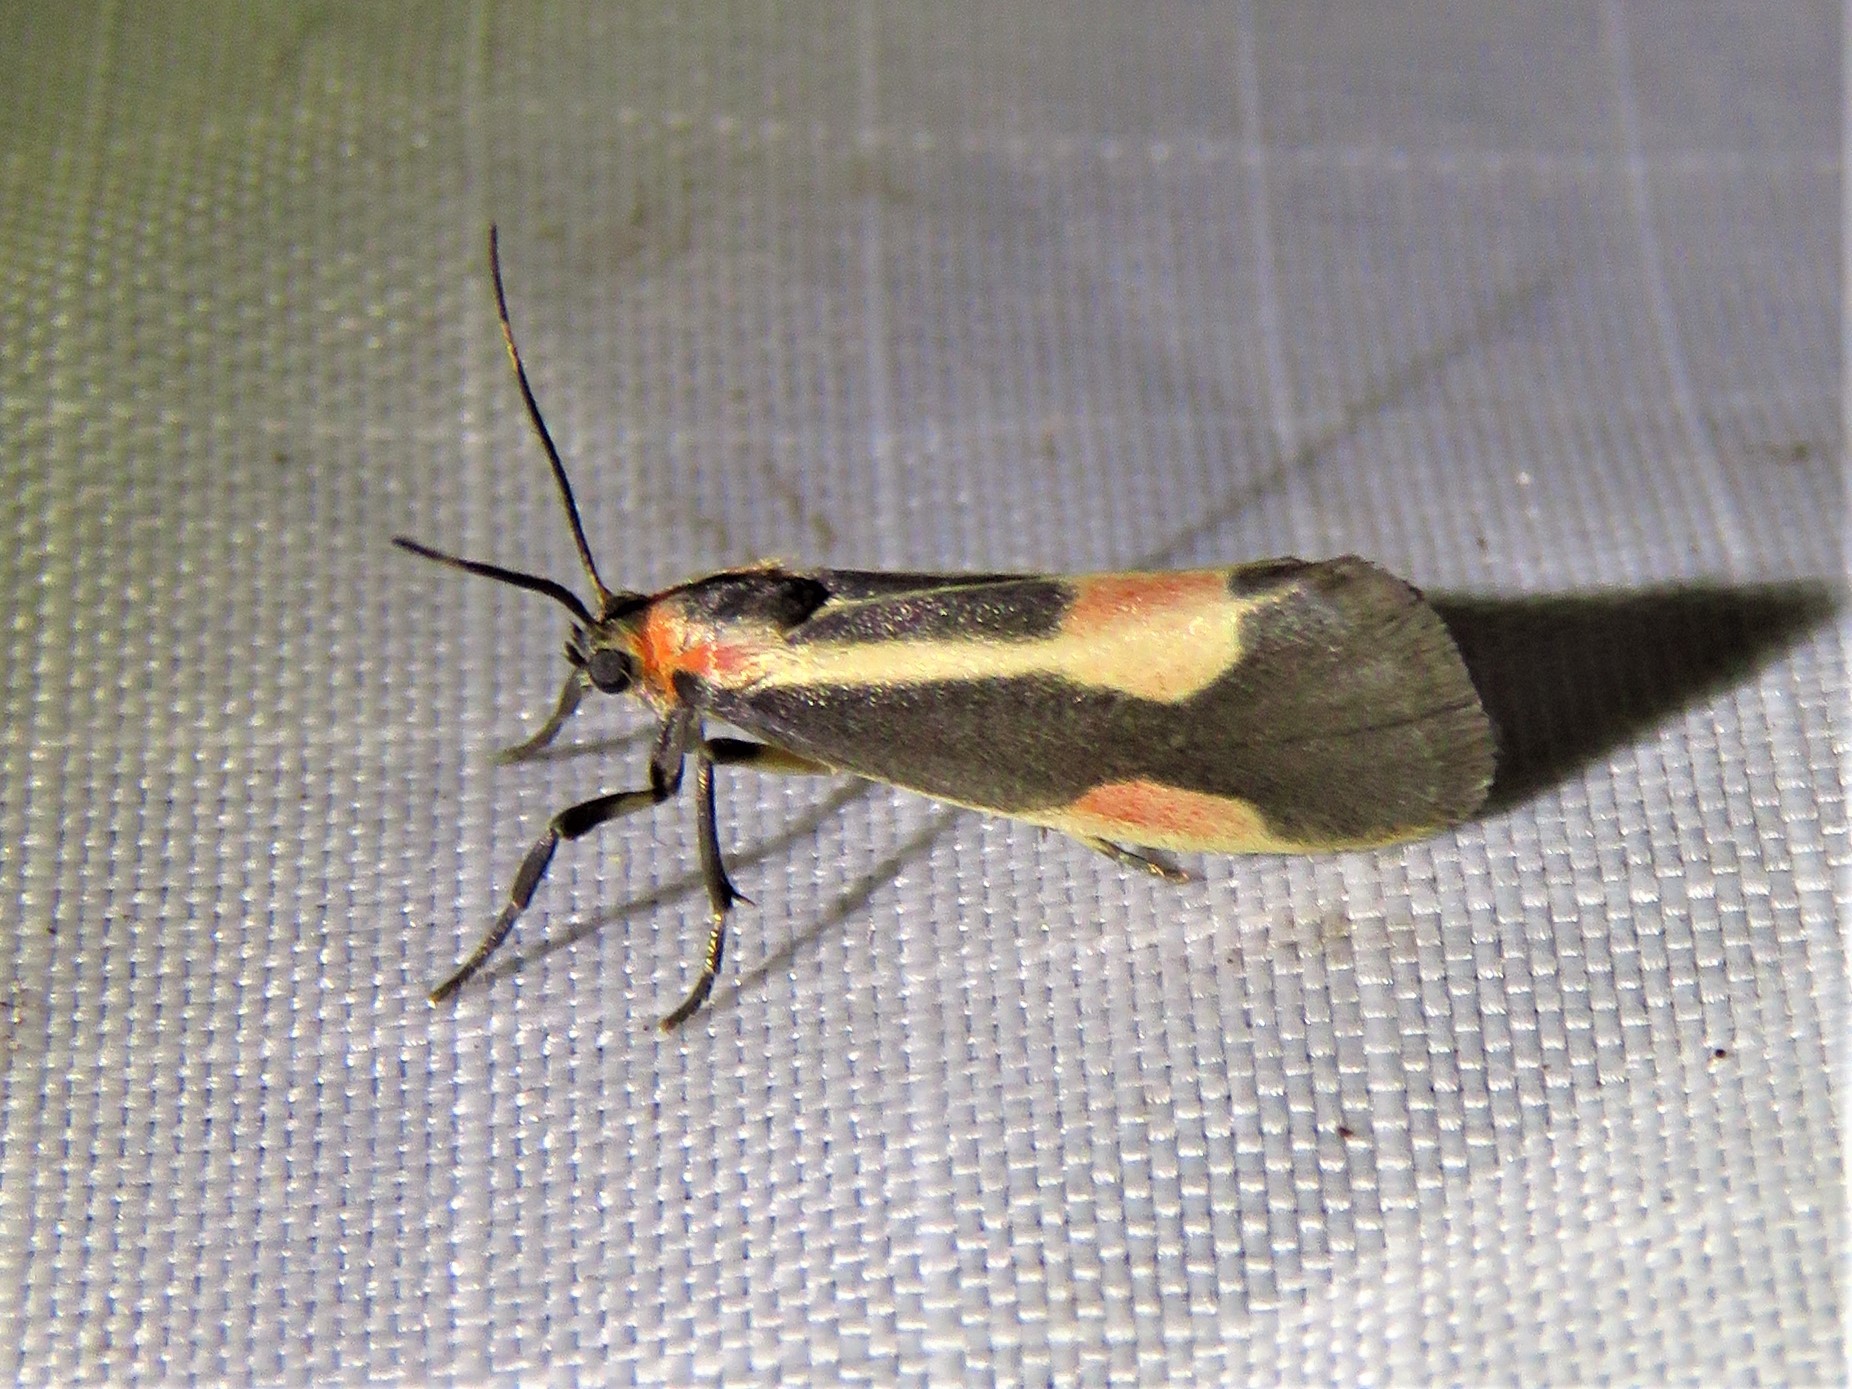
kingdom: Animalia
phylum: Arthropoda
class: Insecta
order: Lepidoptera
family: Erebidae
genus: Cisthene
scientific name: Cisthene packardii
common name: Packard's lichen moth
